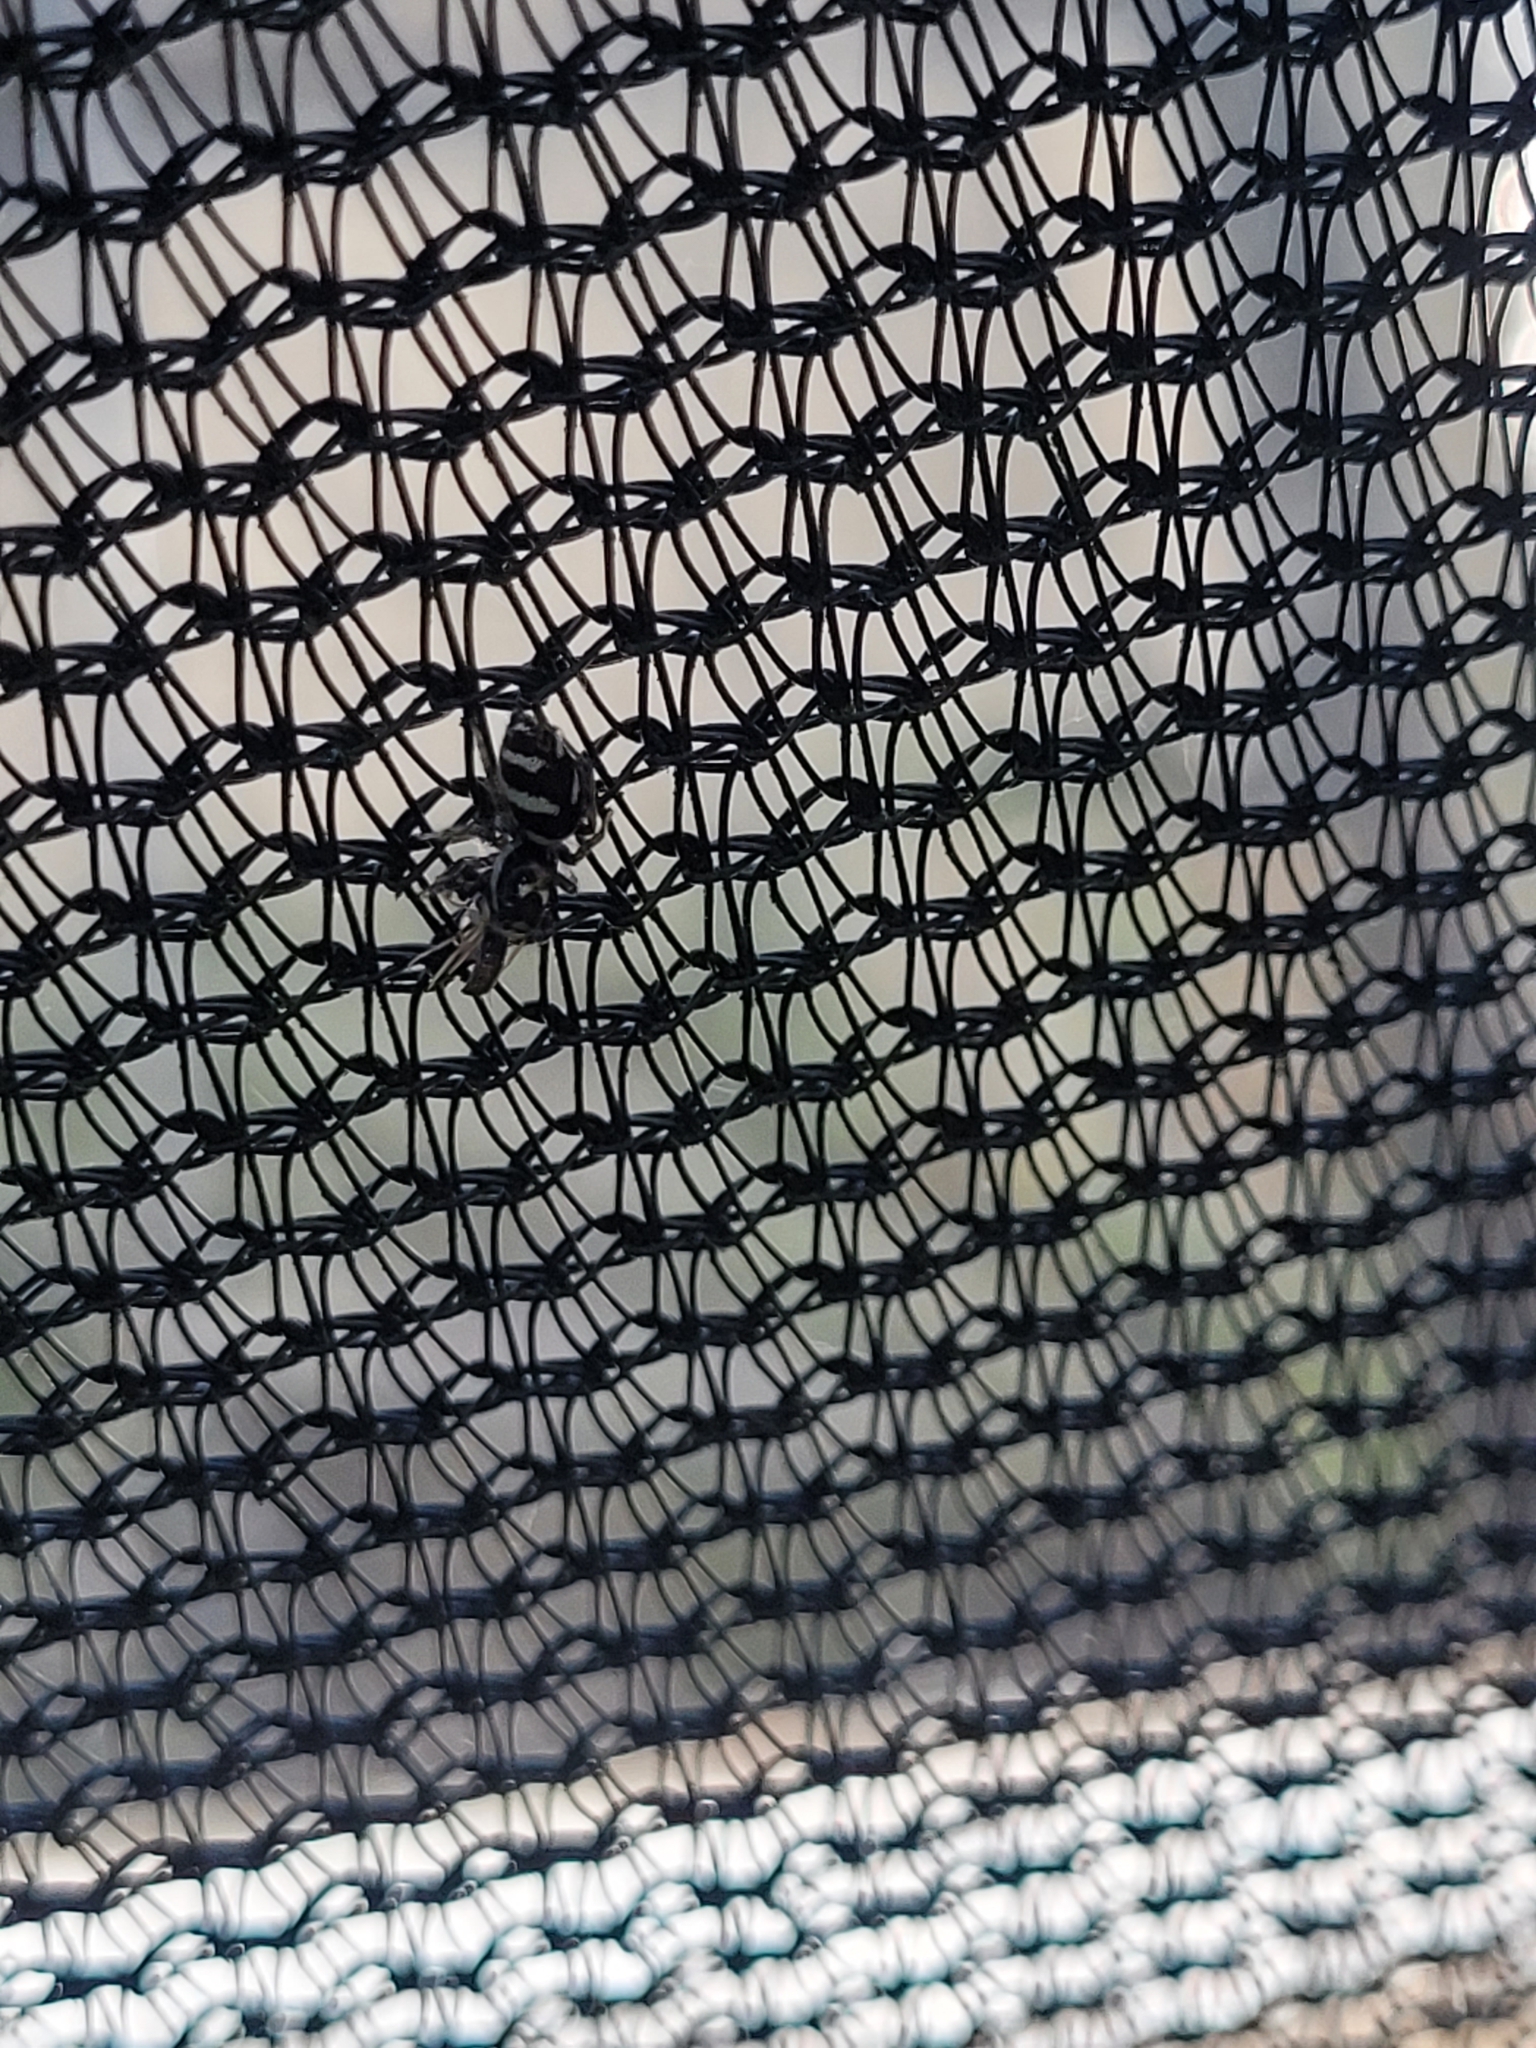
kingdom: Animalia
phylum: Arthropoda
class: Arachnida
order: Araneae
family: Salticidae
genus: Salticus
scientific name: Salticus scenicus
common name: Zebra jumper
